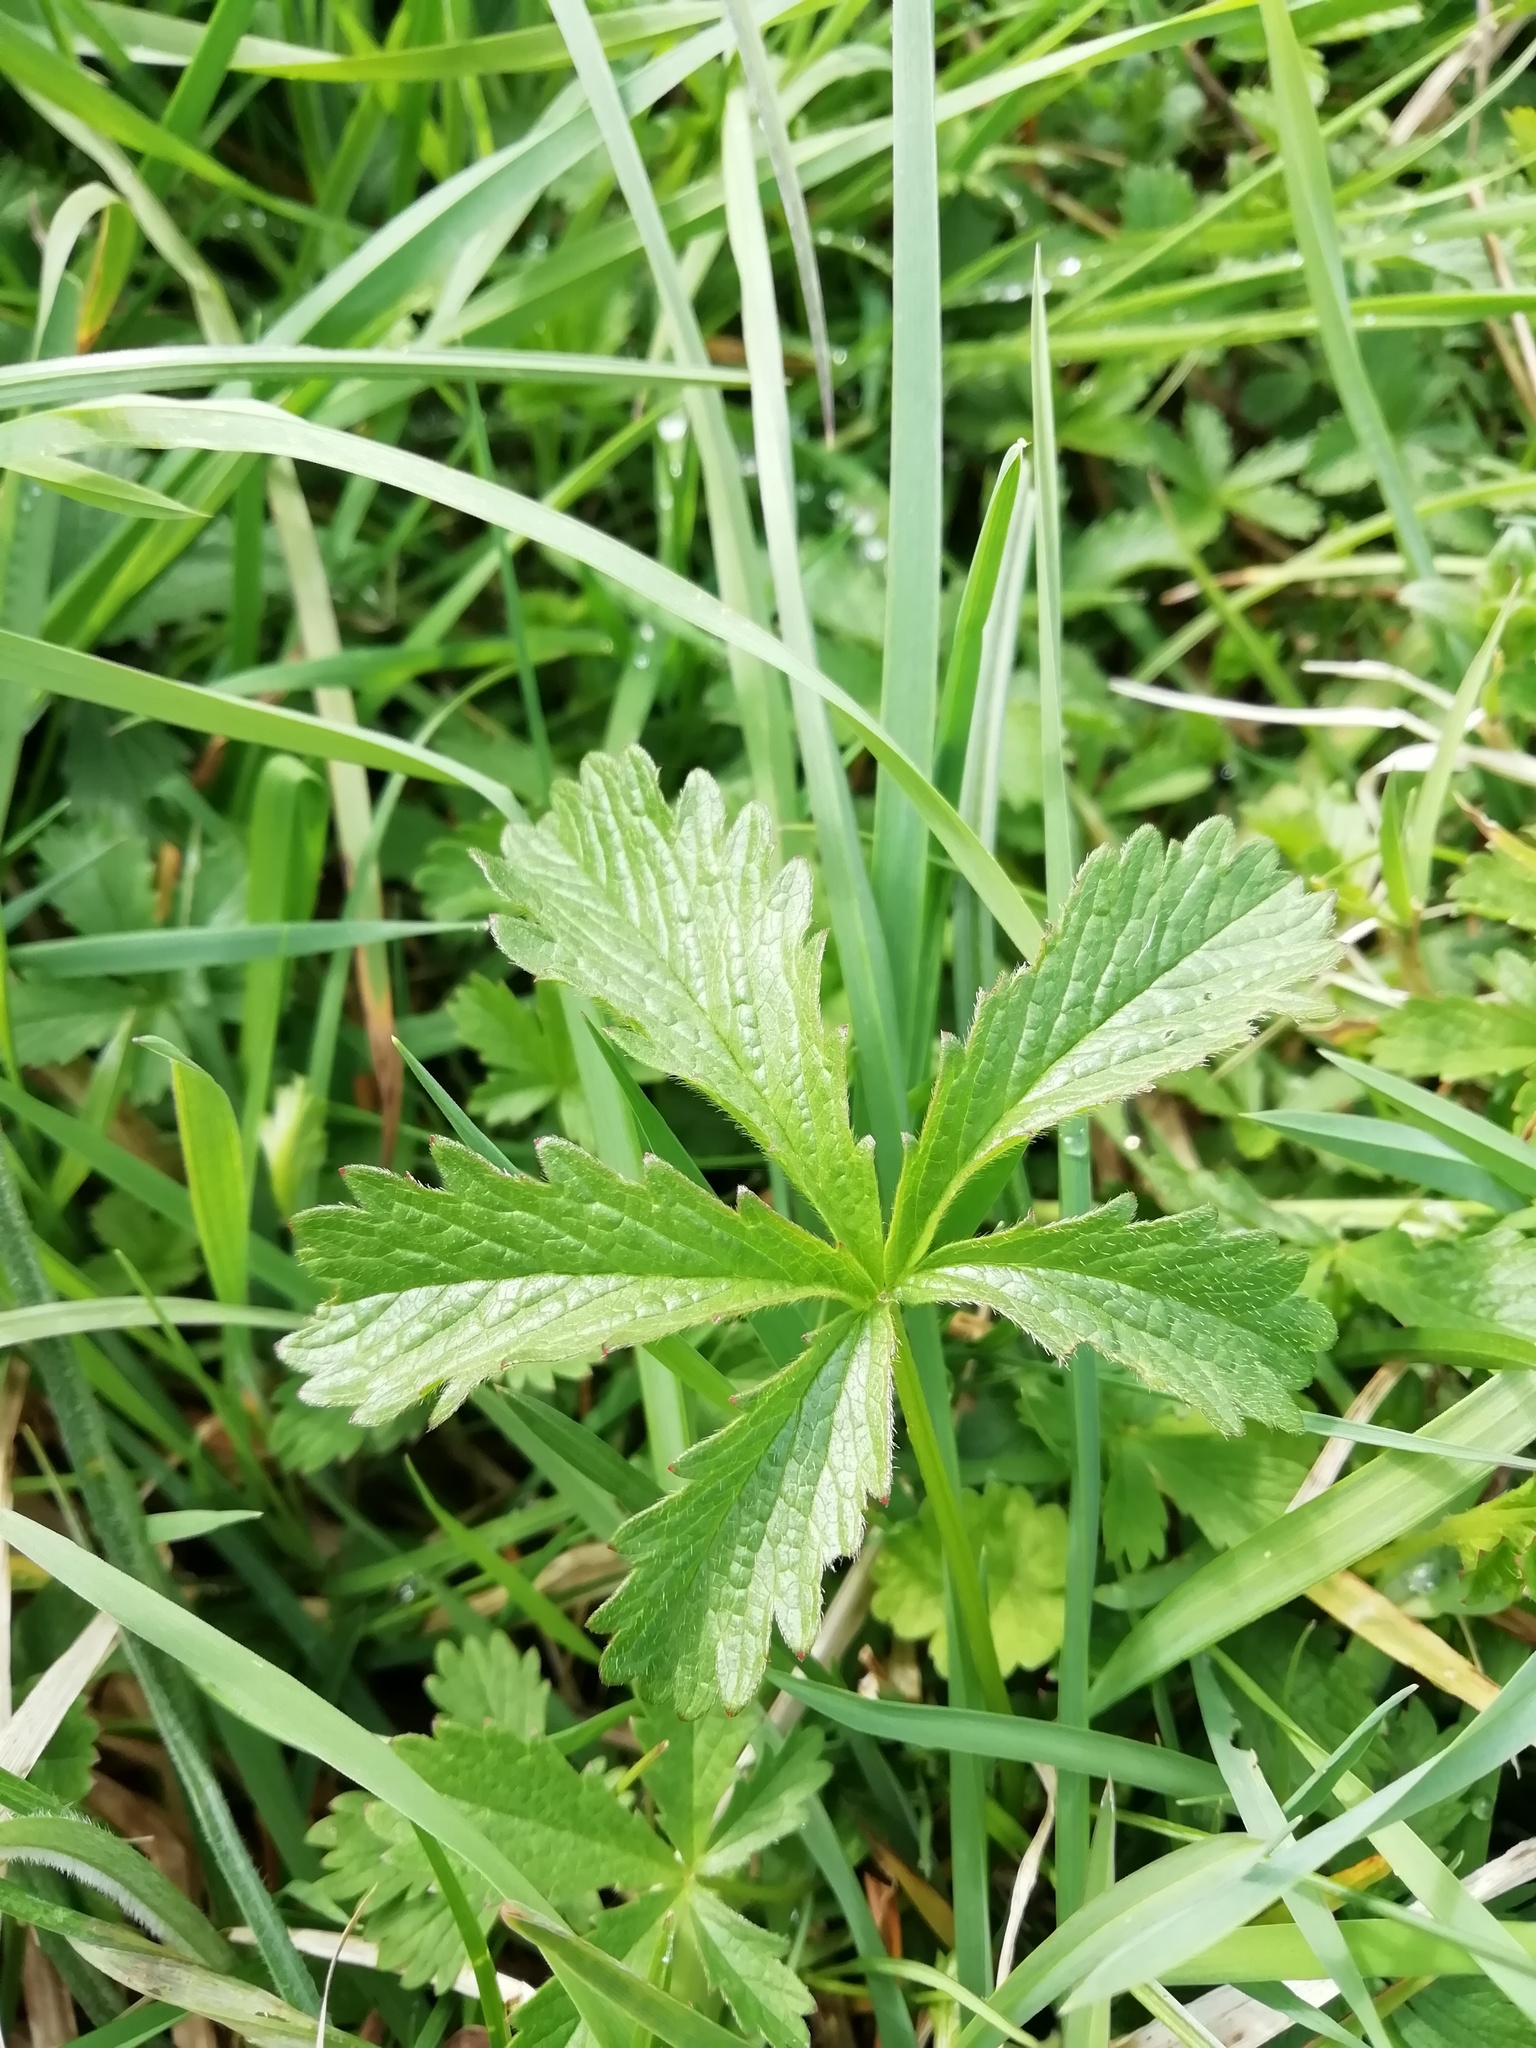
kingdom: Plantae
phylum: Tracheophyta
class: Magnoliopsida
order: Rosales
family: Rosaceae
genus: Potentilla
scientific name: Potentilla reptans
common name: Creeping cinquefoil
